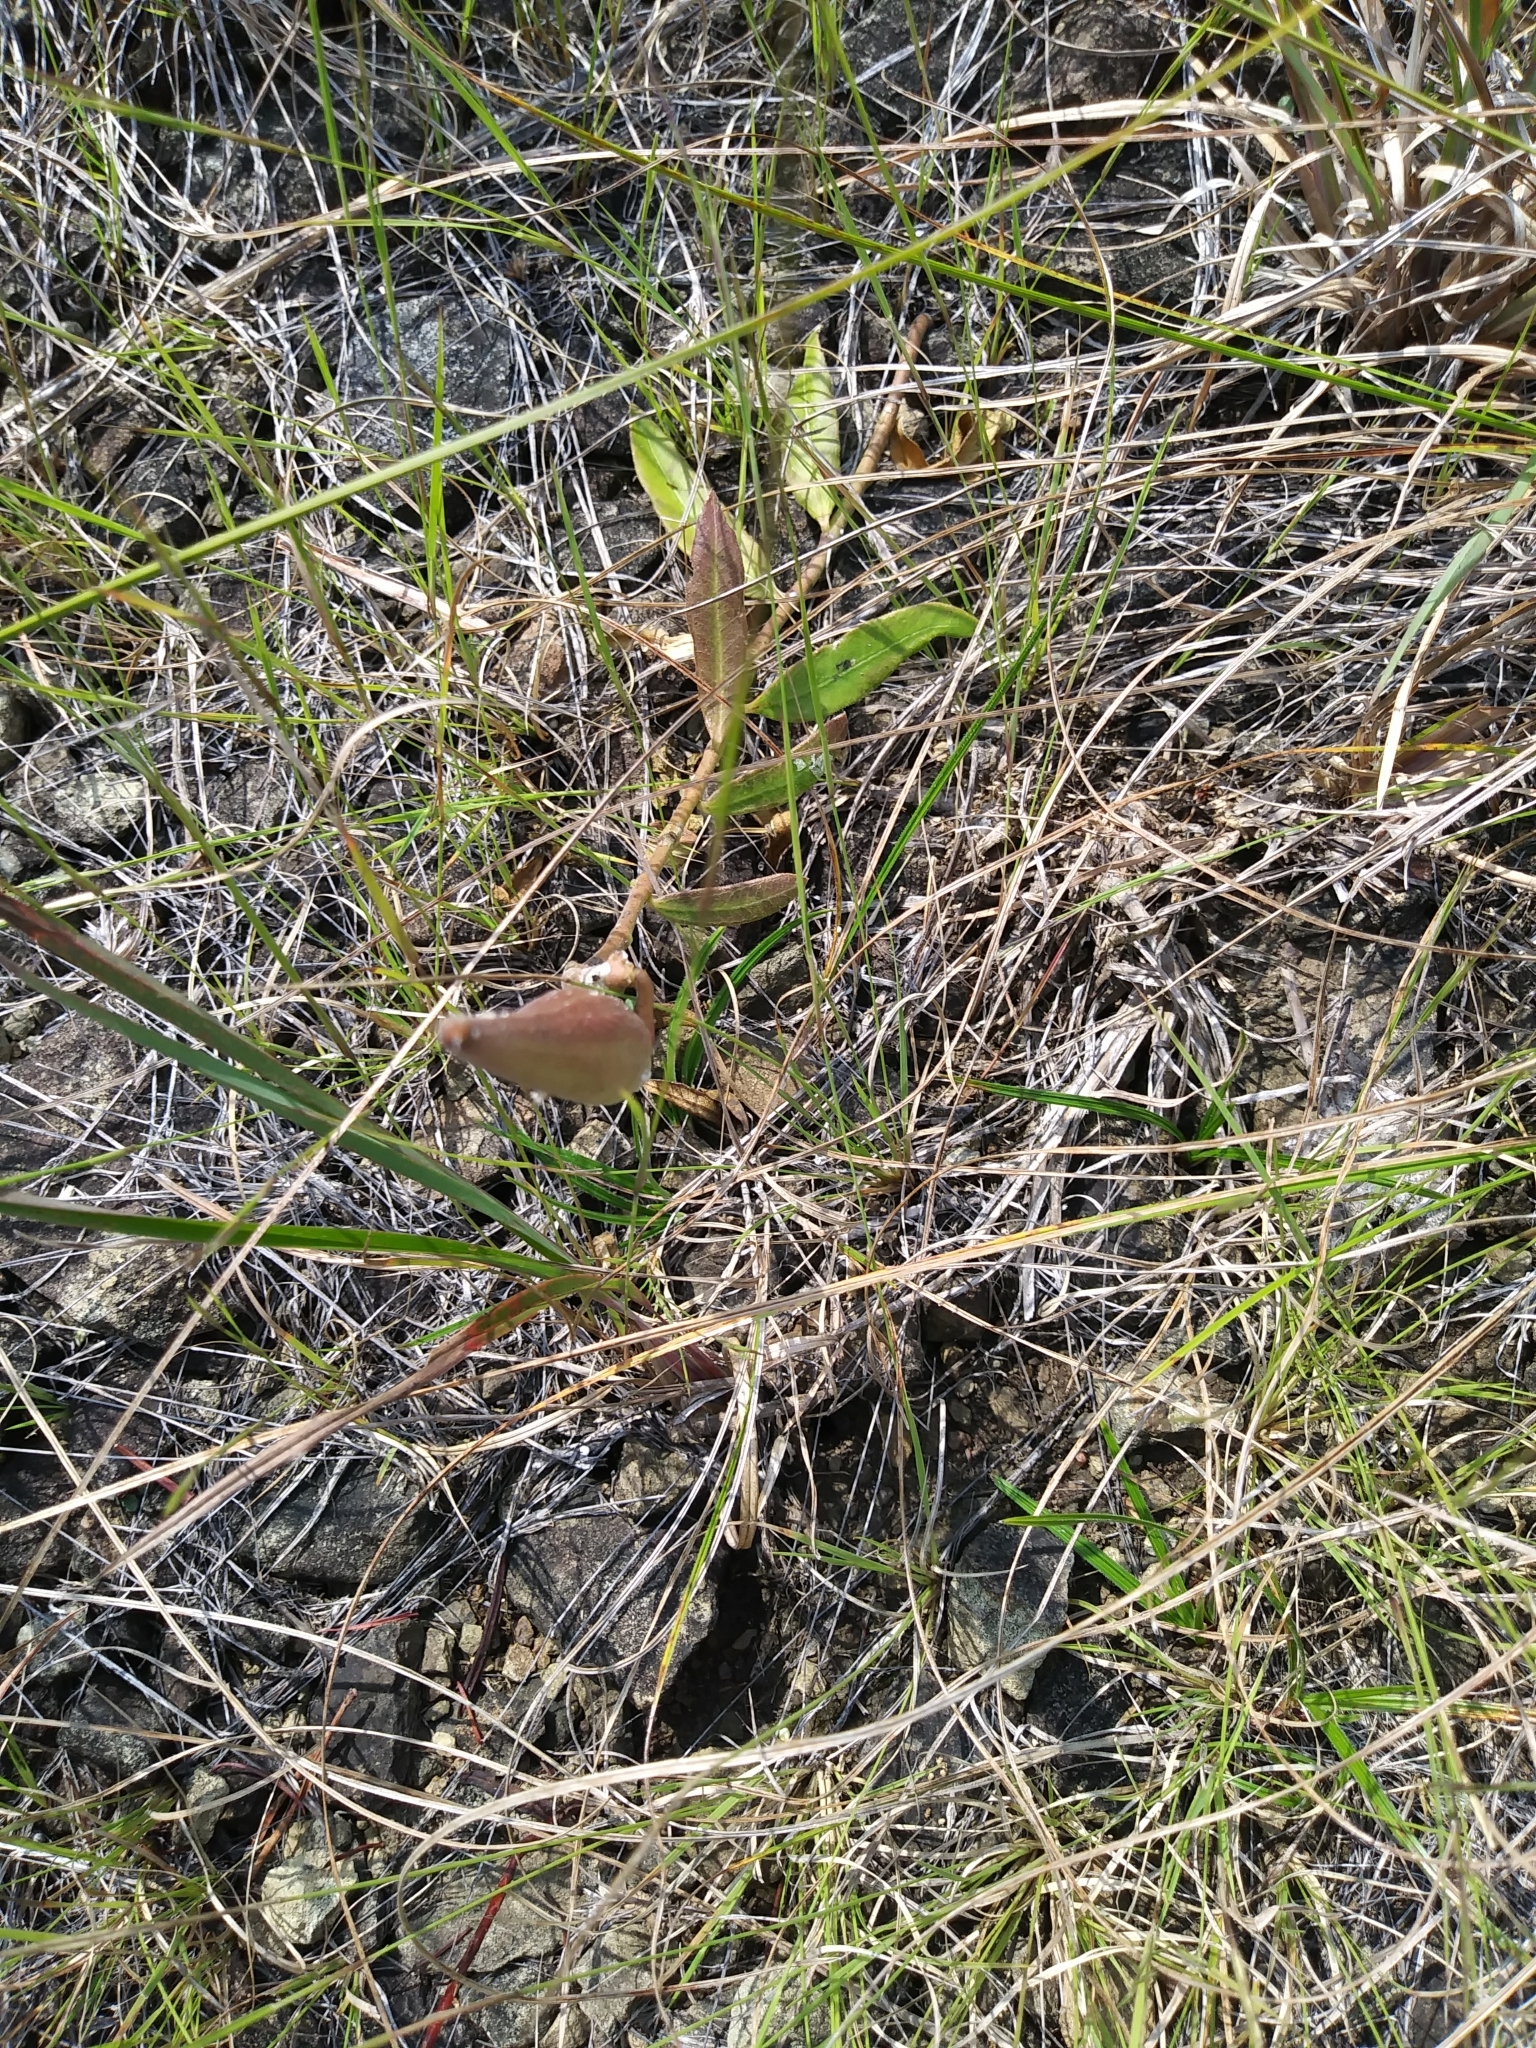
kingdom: Plantae
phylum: Tracheophyta
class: Magnoliopsida
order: Gentianales
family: Apocynaceae
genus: Asclepias
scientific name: Asclepias viridiflora
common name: Green comet milkweed
